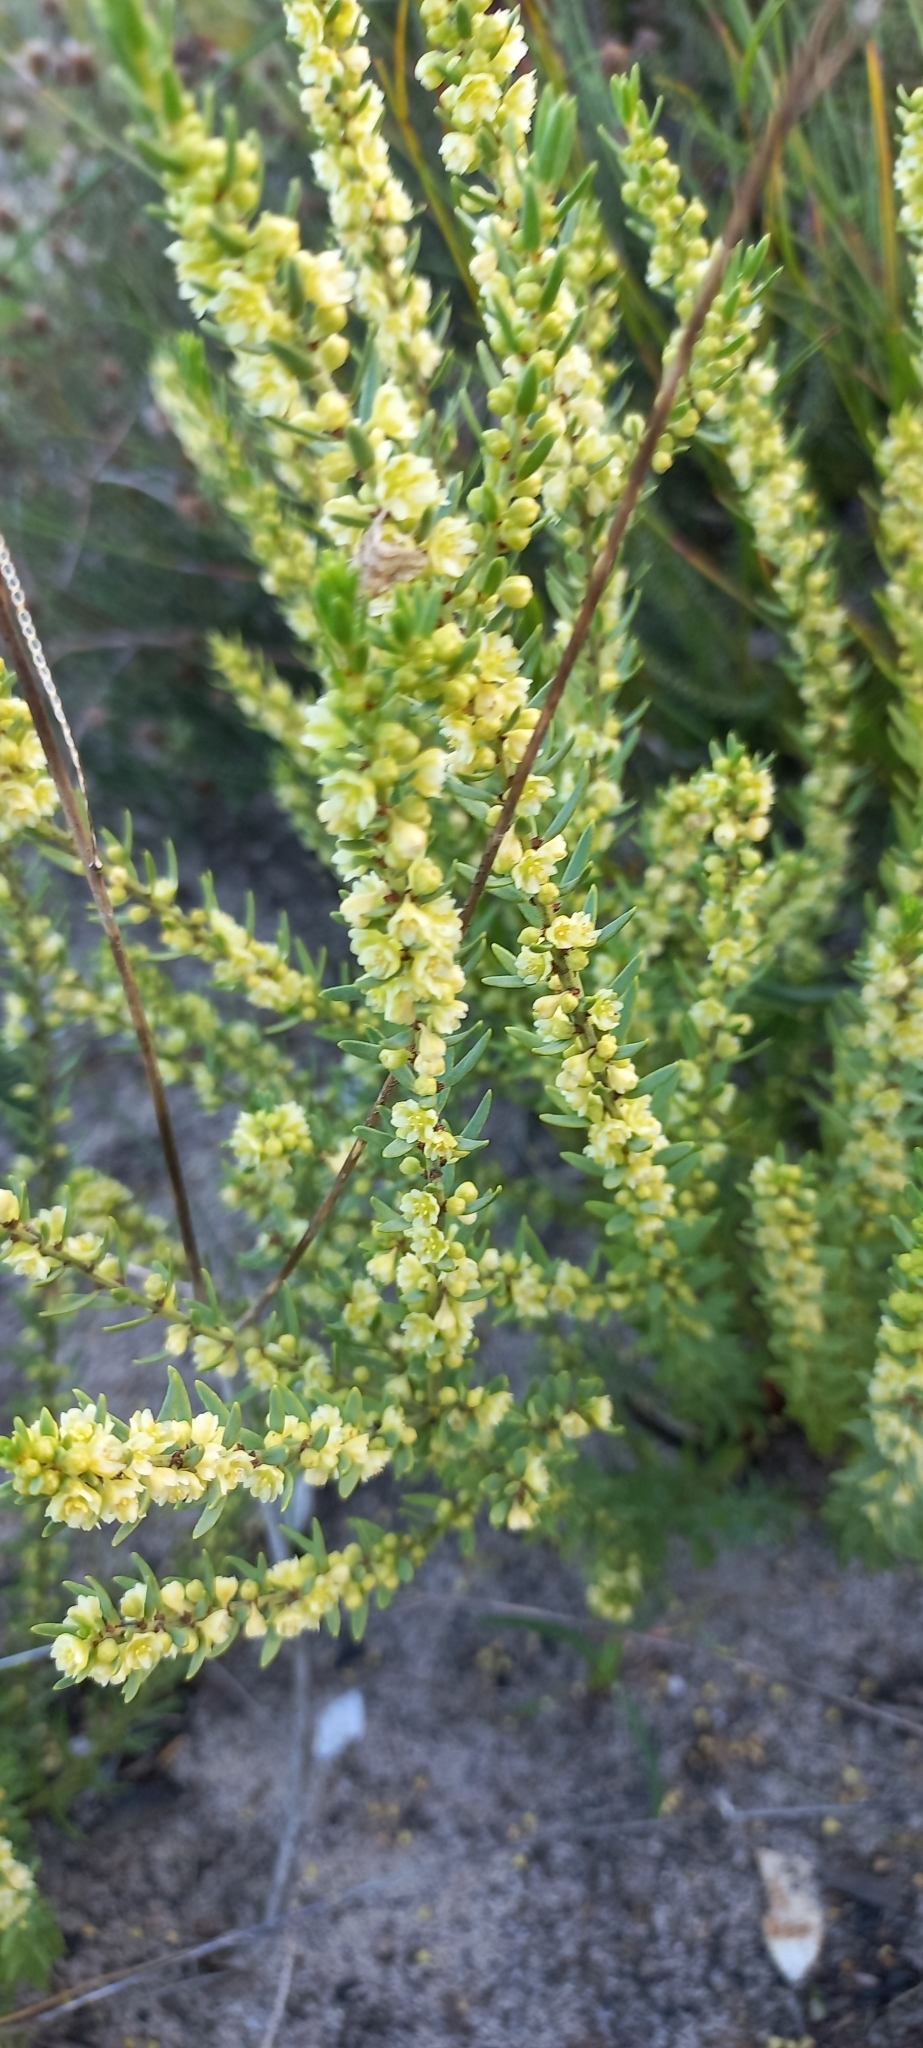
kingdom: Plantae
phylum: Tracheophyta
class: Magnoliopsida
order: Malpighiales
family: Peraceae
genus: Clutia
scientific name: Clutia ericoides
